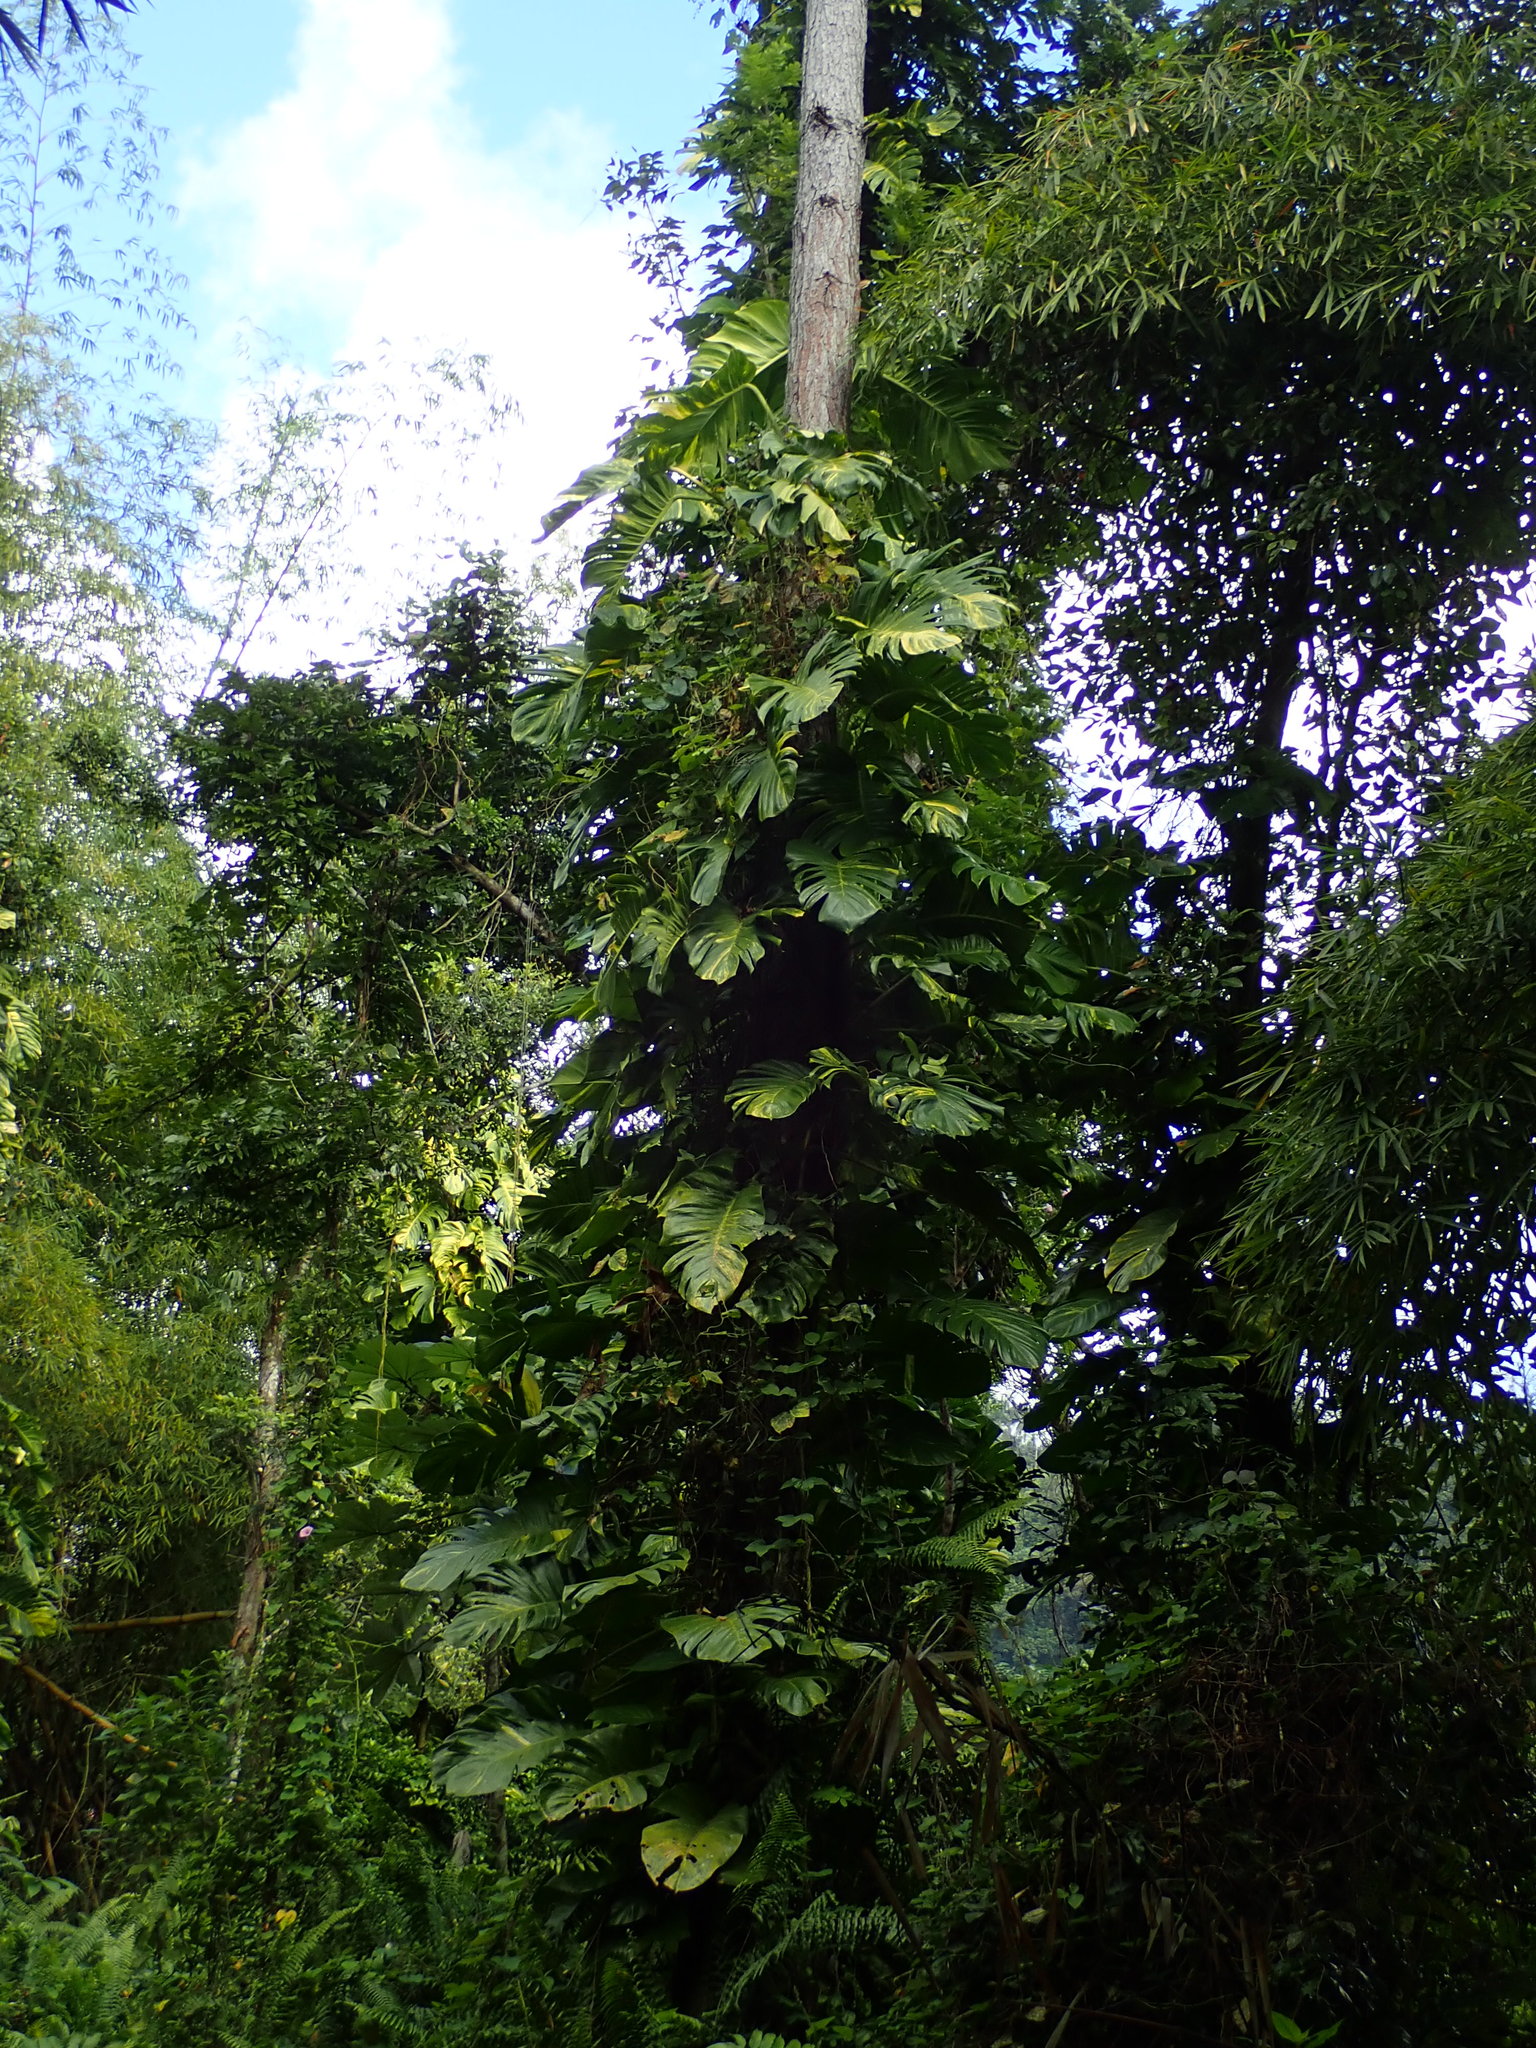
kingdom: Plantae
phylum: Tracheophyta
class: Liliopsida
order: Alismatales
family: Araceae
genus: Epipremnum
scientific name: Epipremnum aureum
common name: Golden hunter's-robe
